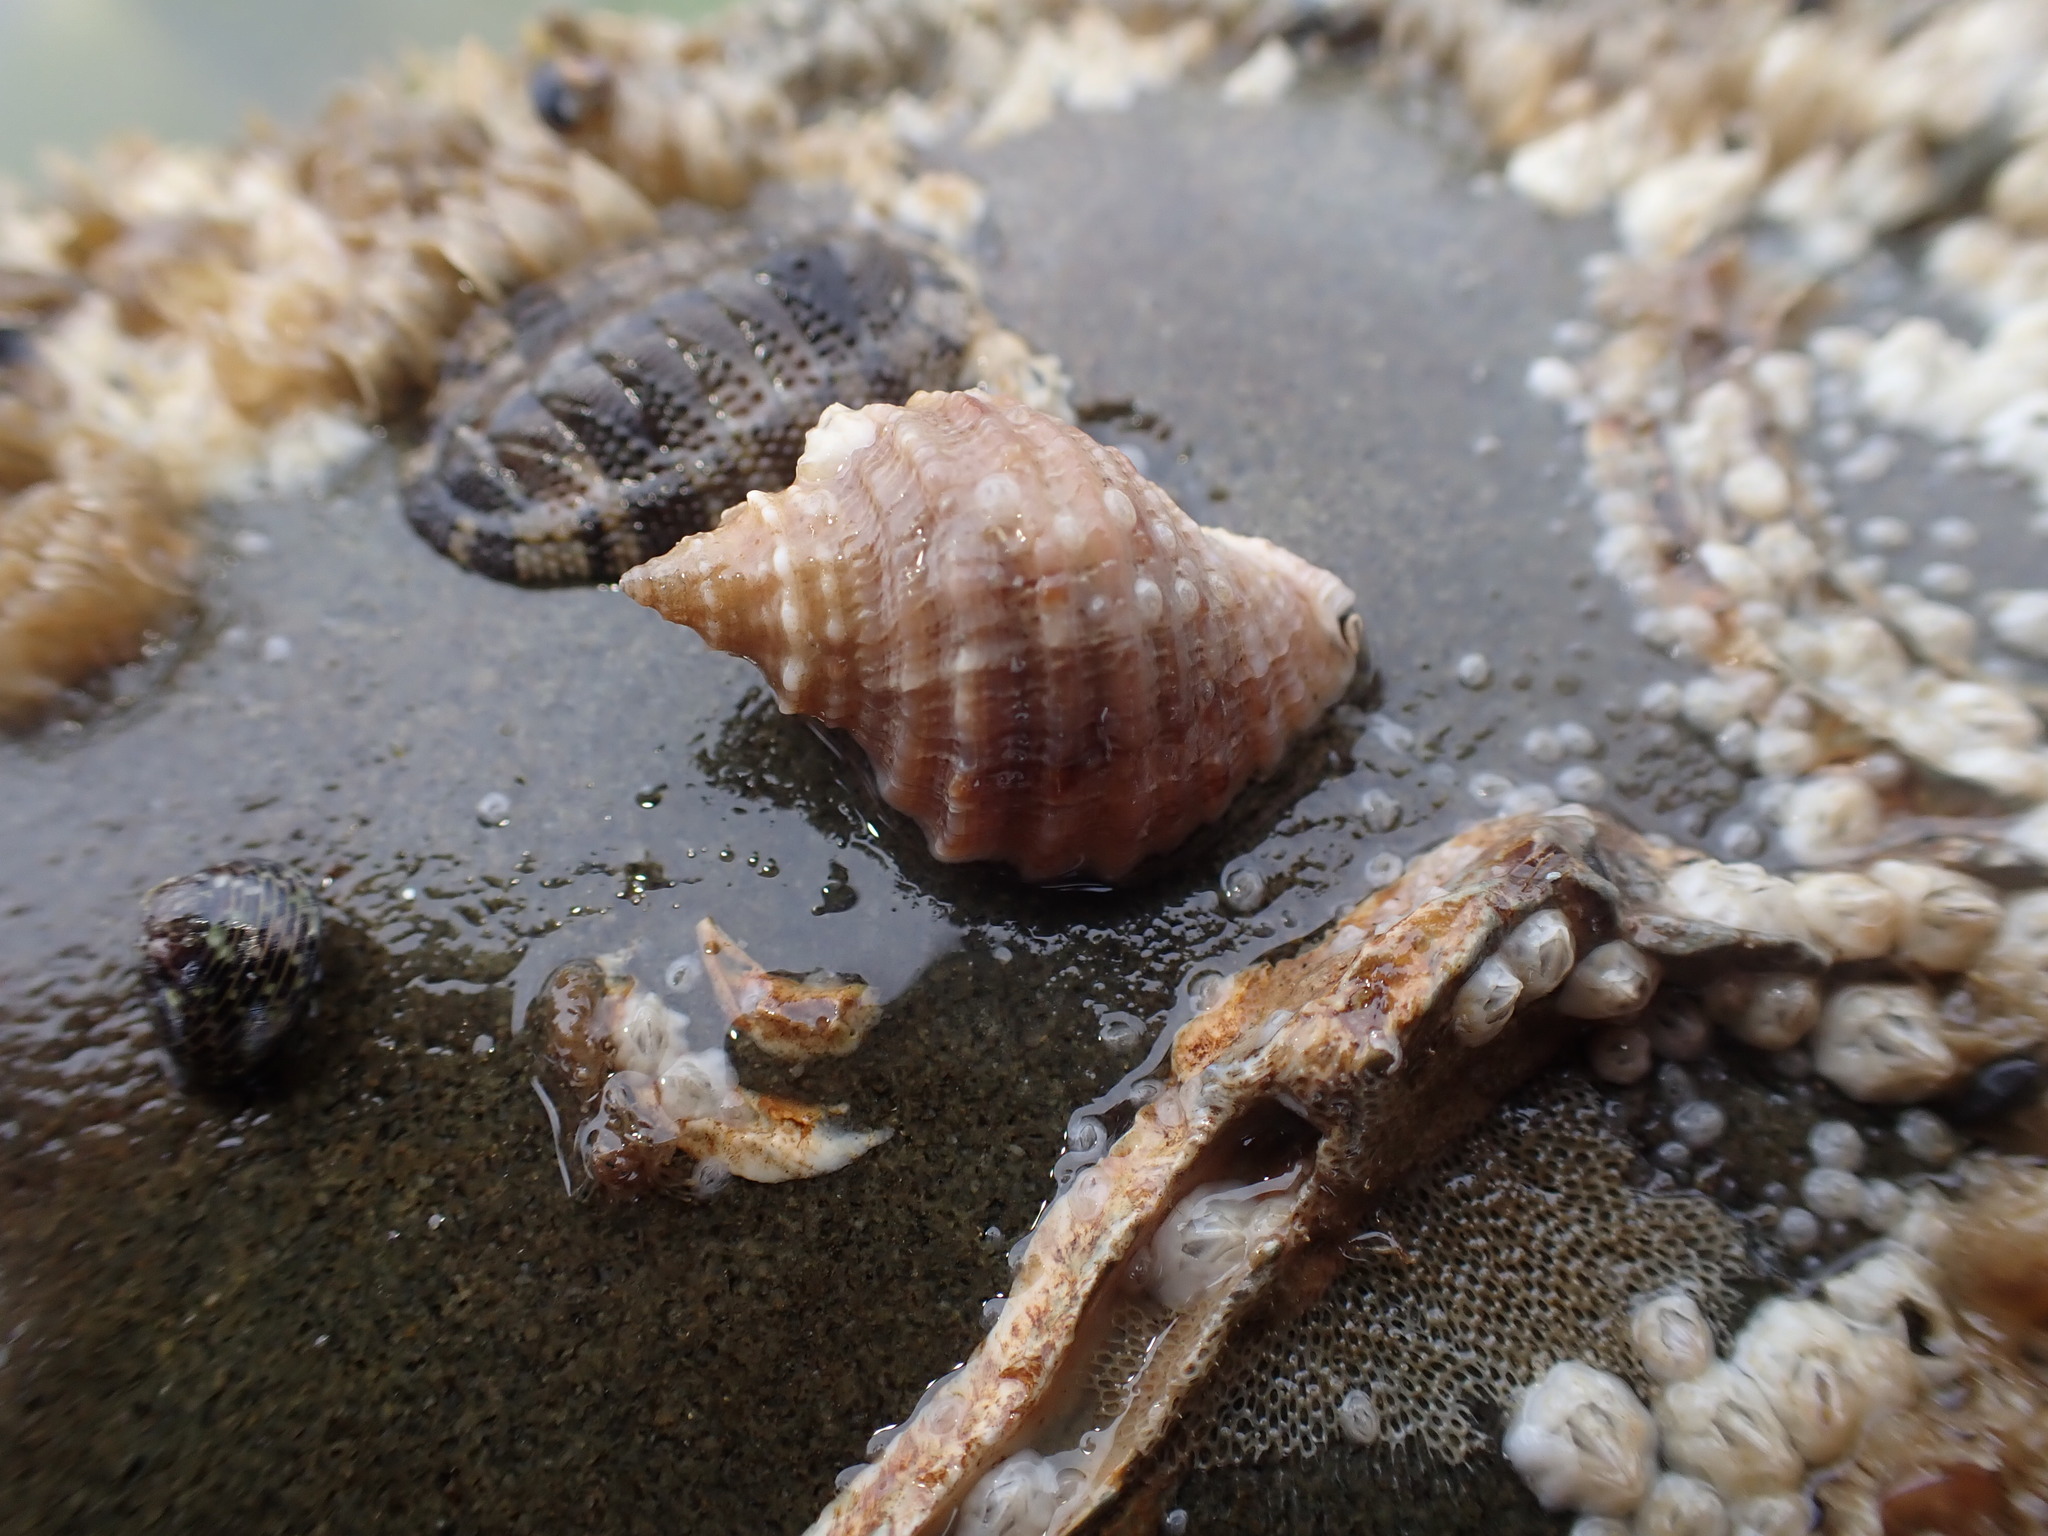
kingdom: Animalia
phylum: Mollusca
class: Gastropoda
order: Neogastropoda
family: Muricidae
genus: Dicathais
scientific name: Dicathais orbita
